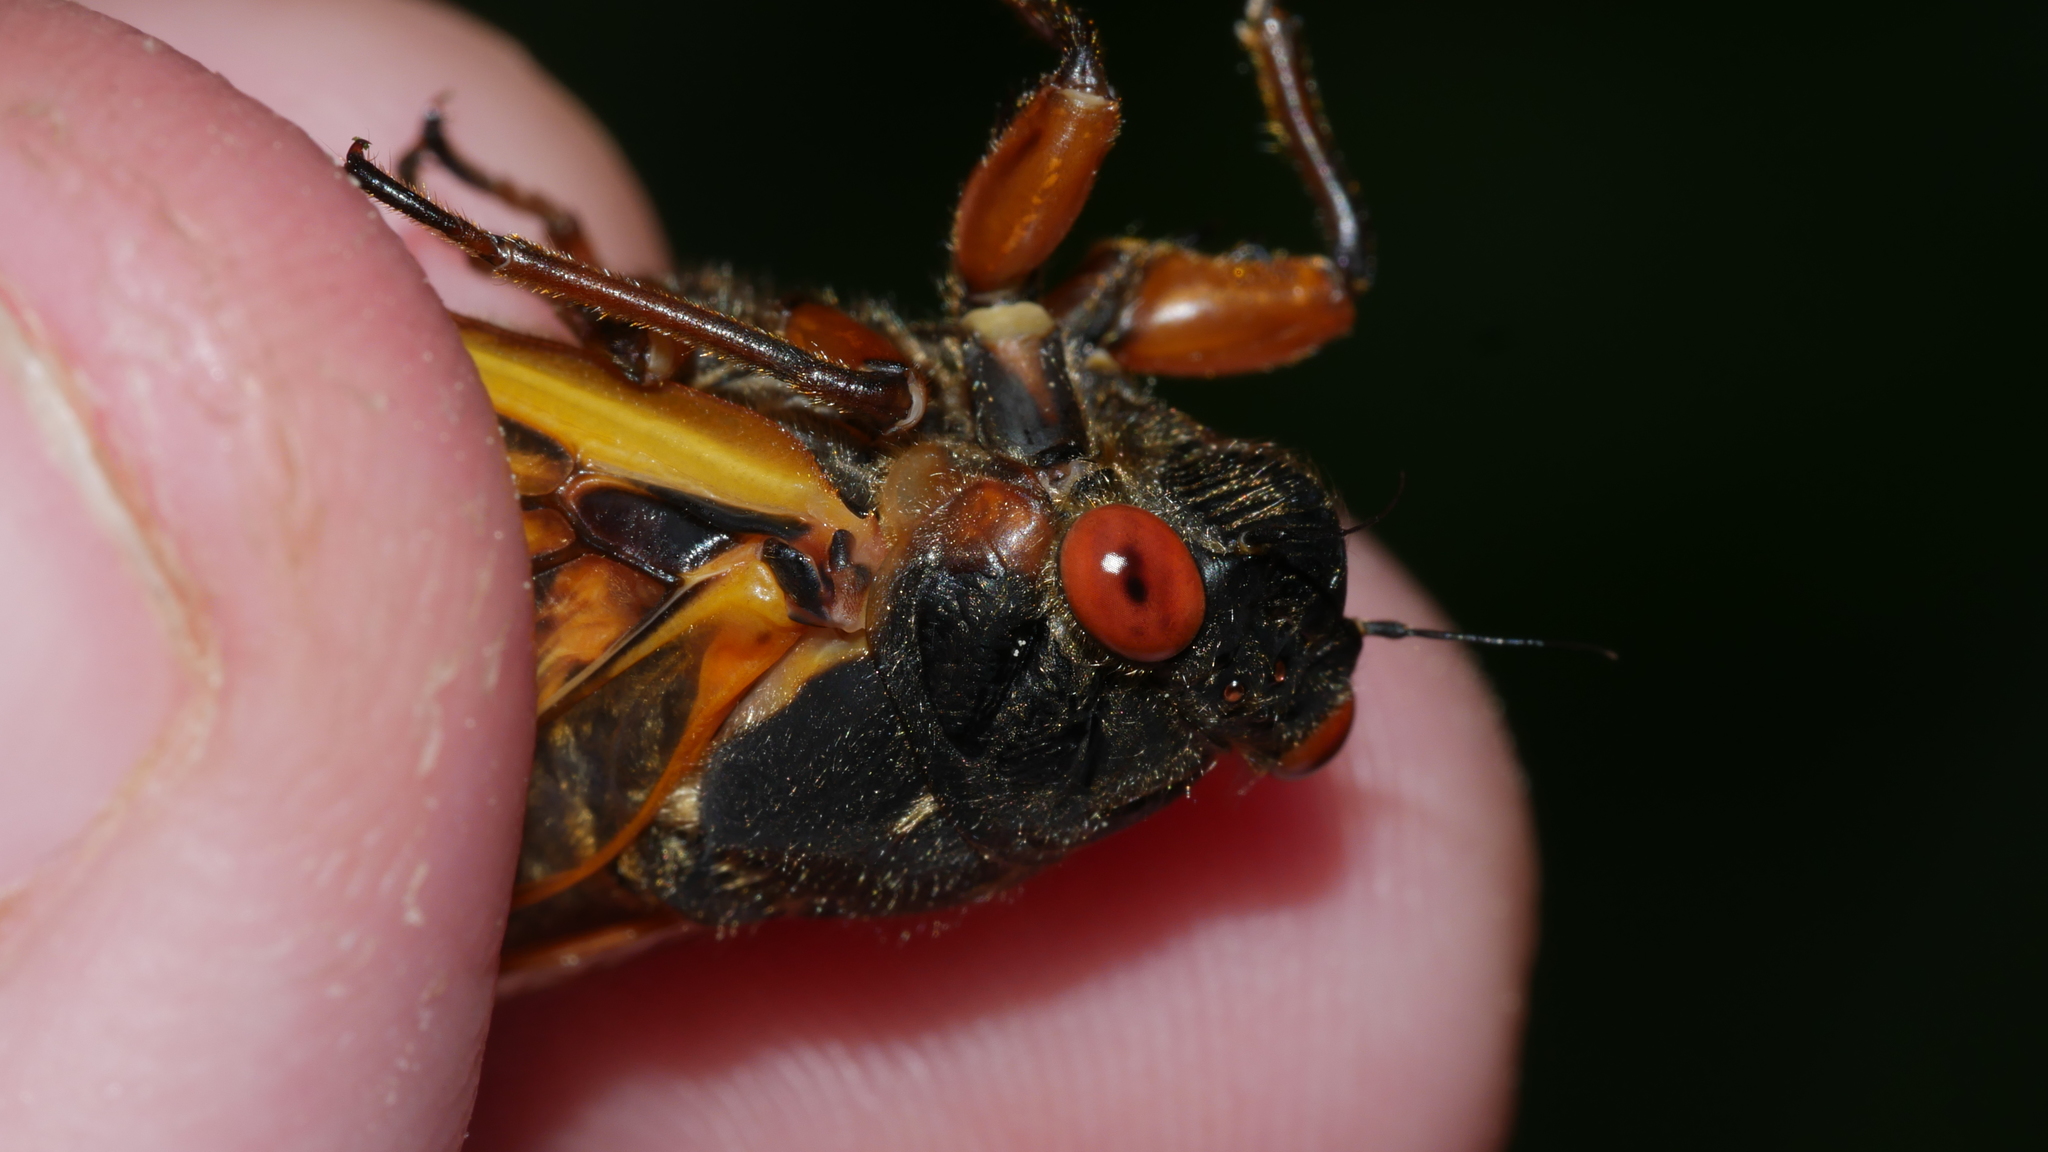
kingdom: Animalia
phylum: Arthropoda
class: Insecta
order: Hemiptera
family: Cicadidae
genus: Magicicada
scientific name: Magicicada septendecim
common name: Periodical cicada
